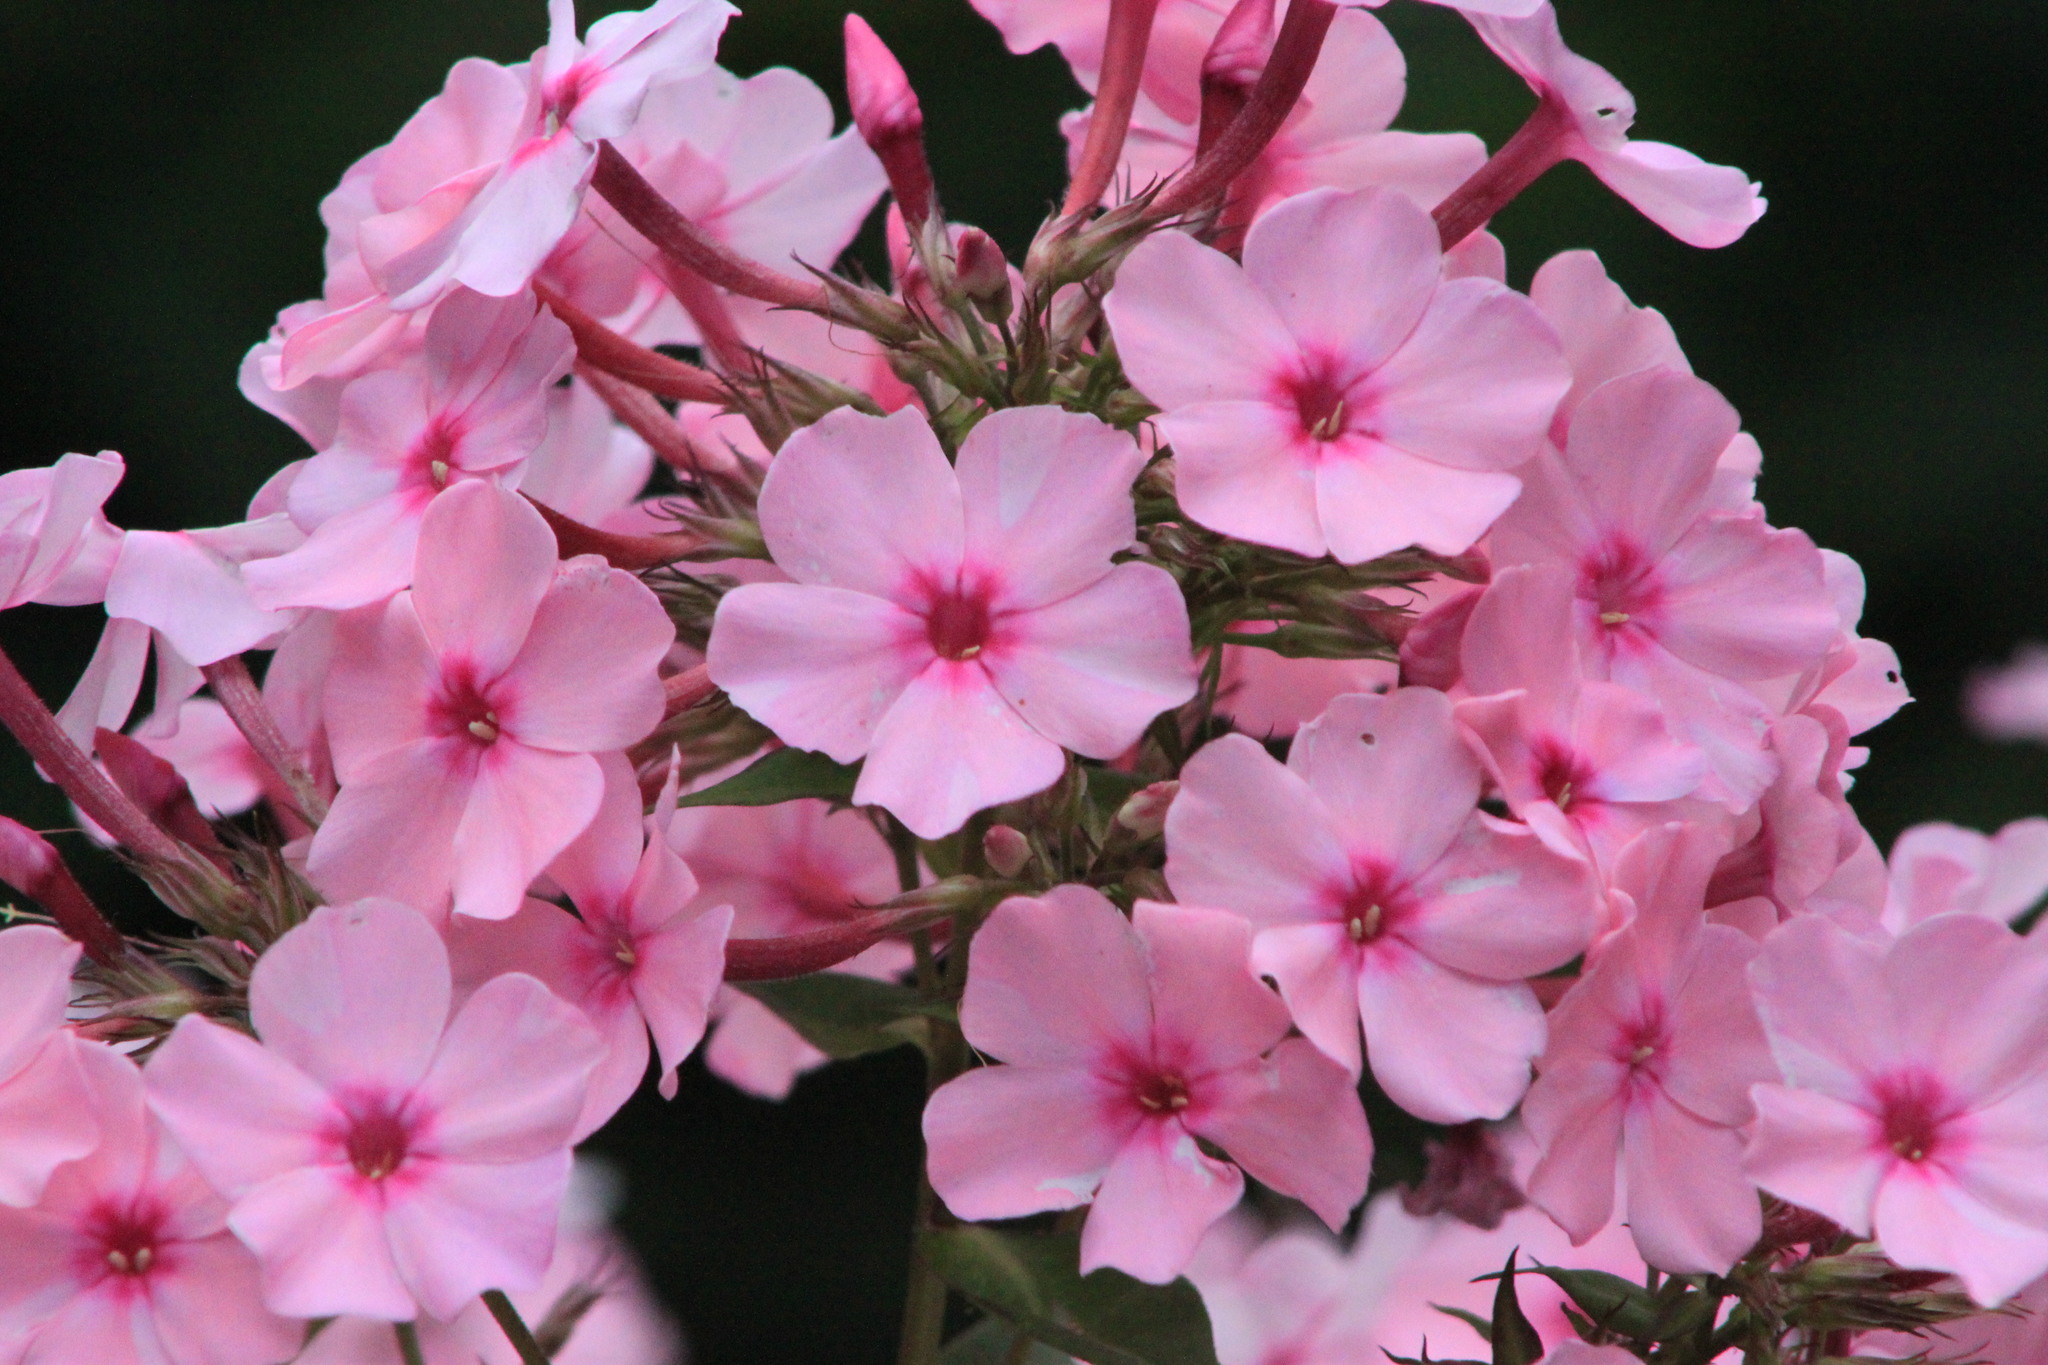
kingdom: Plantae
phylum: Tracheophyta
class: Magnoliopsida
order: Ericales
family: Polemoniaceae
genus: Phlox
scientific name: Phlox paniculata
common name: Fall phlox
